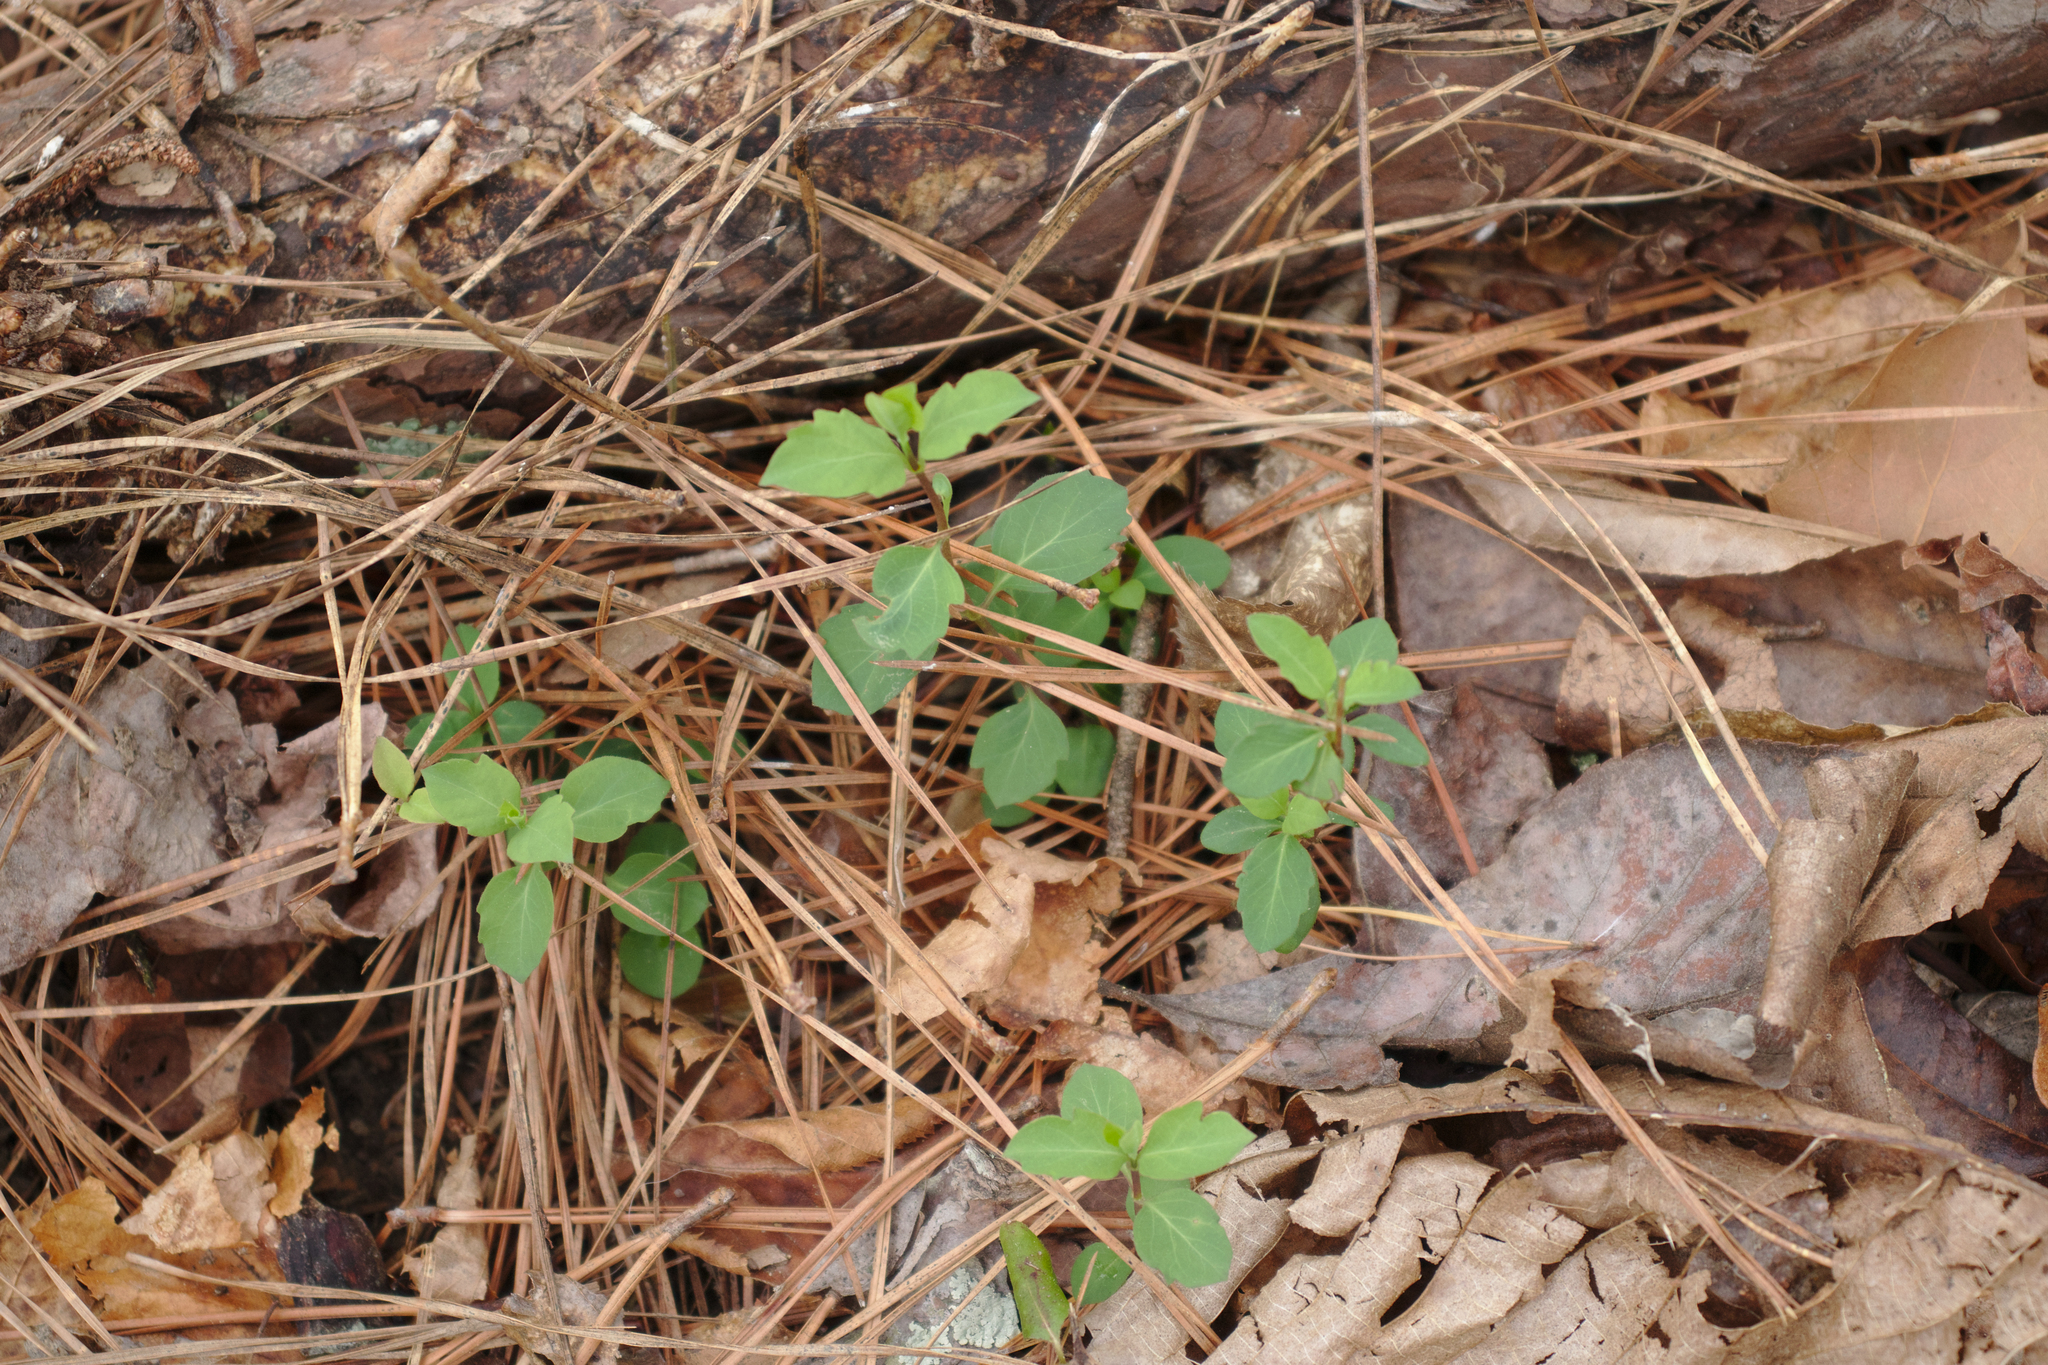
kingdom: Plantae
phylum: Tracheophyta
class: Magnoliopsida
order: Dipsacales
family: Caprifoliaceae
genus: Lonicera
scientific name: Lonicera japonica
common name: Japanese honeysuckle
